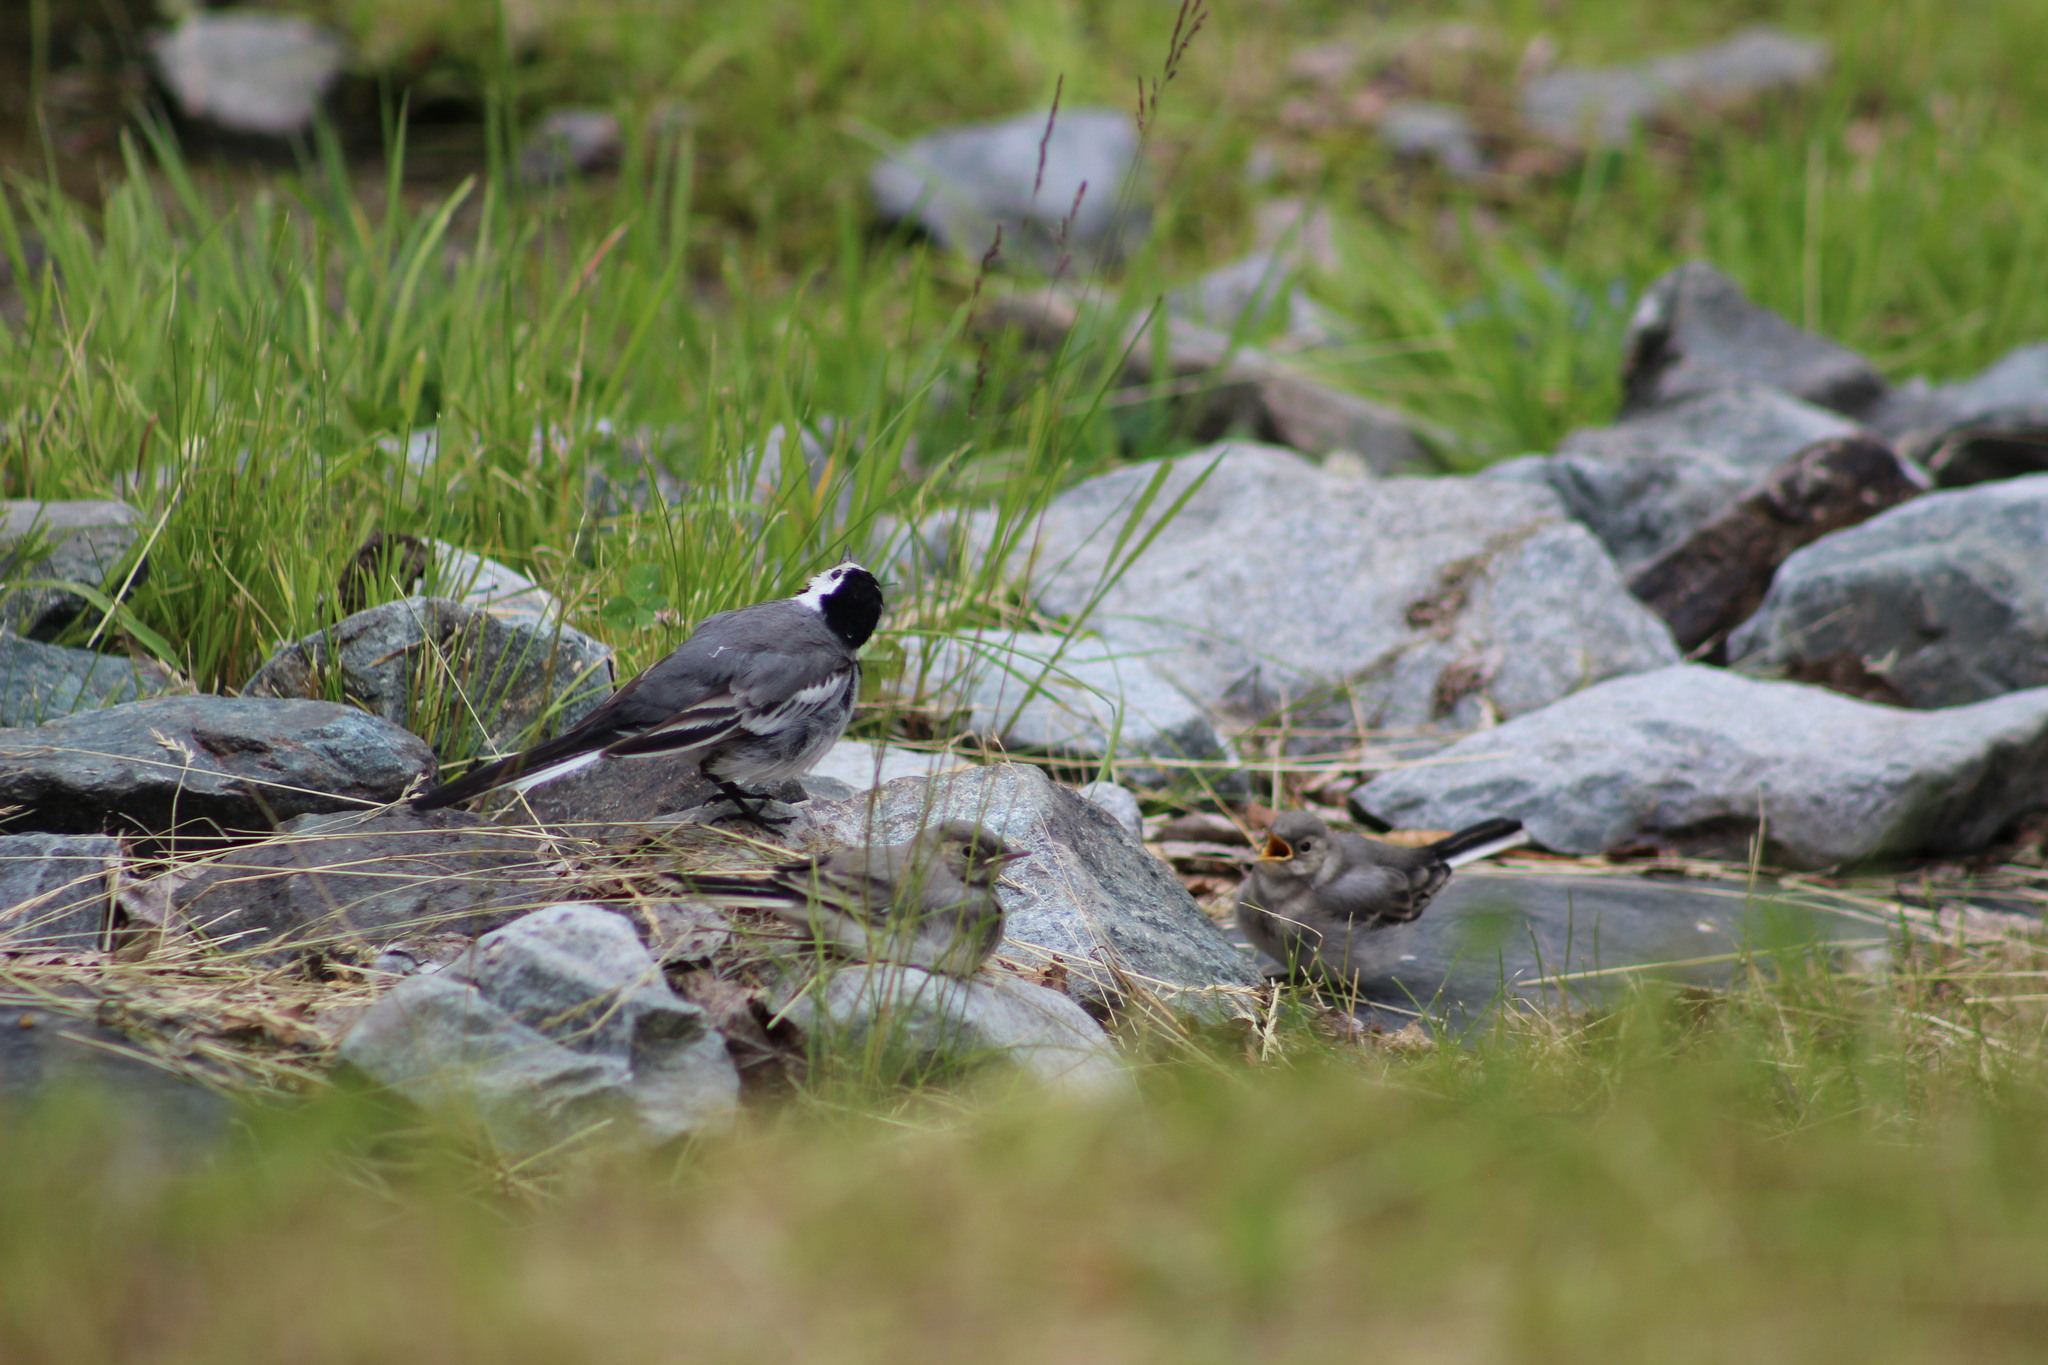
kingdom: Animalia
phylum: Chordata
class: Aves
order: Passeriformes
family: Motacillidae
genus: Motacilla
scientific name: Motacilla alba
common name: White wagtail
